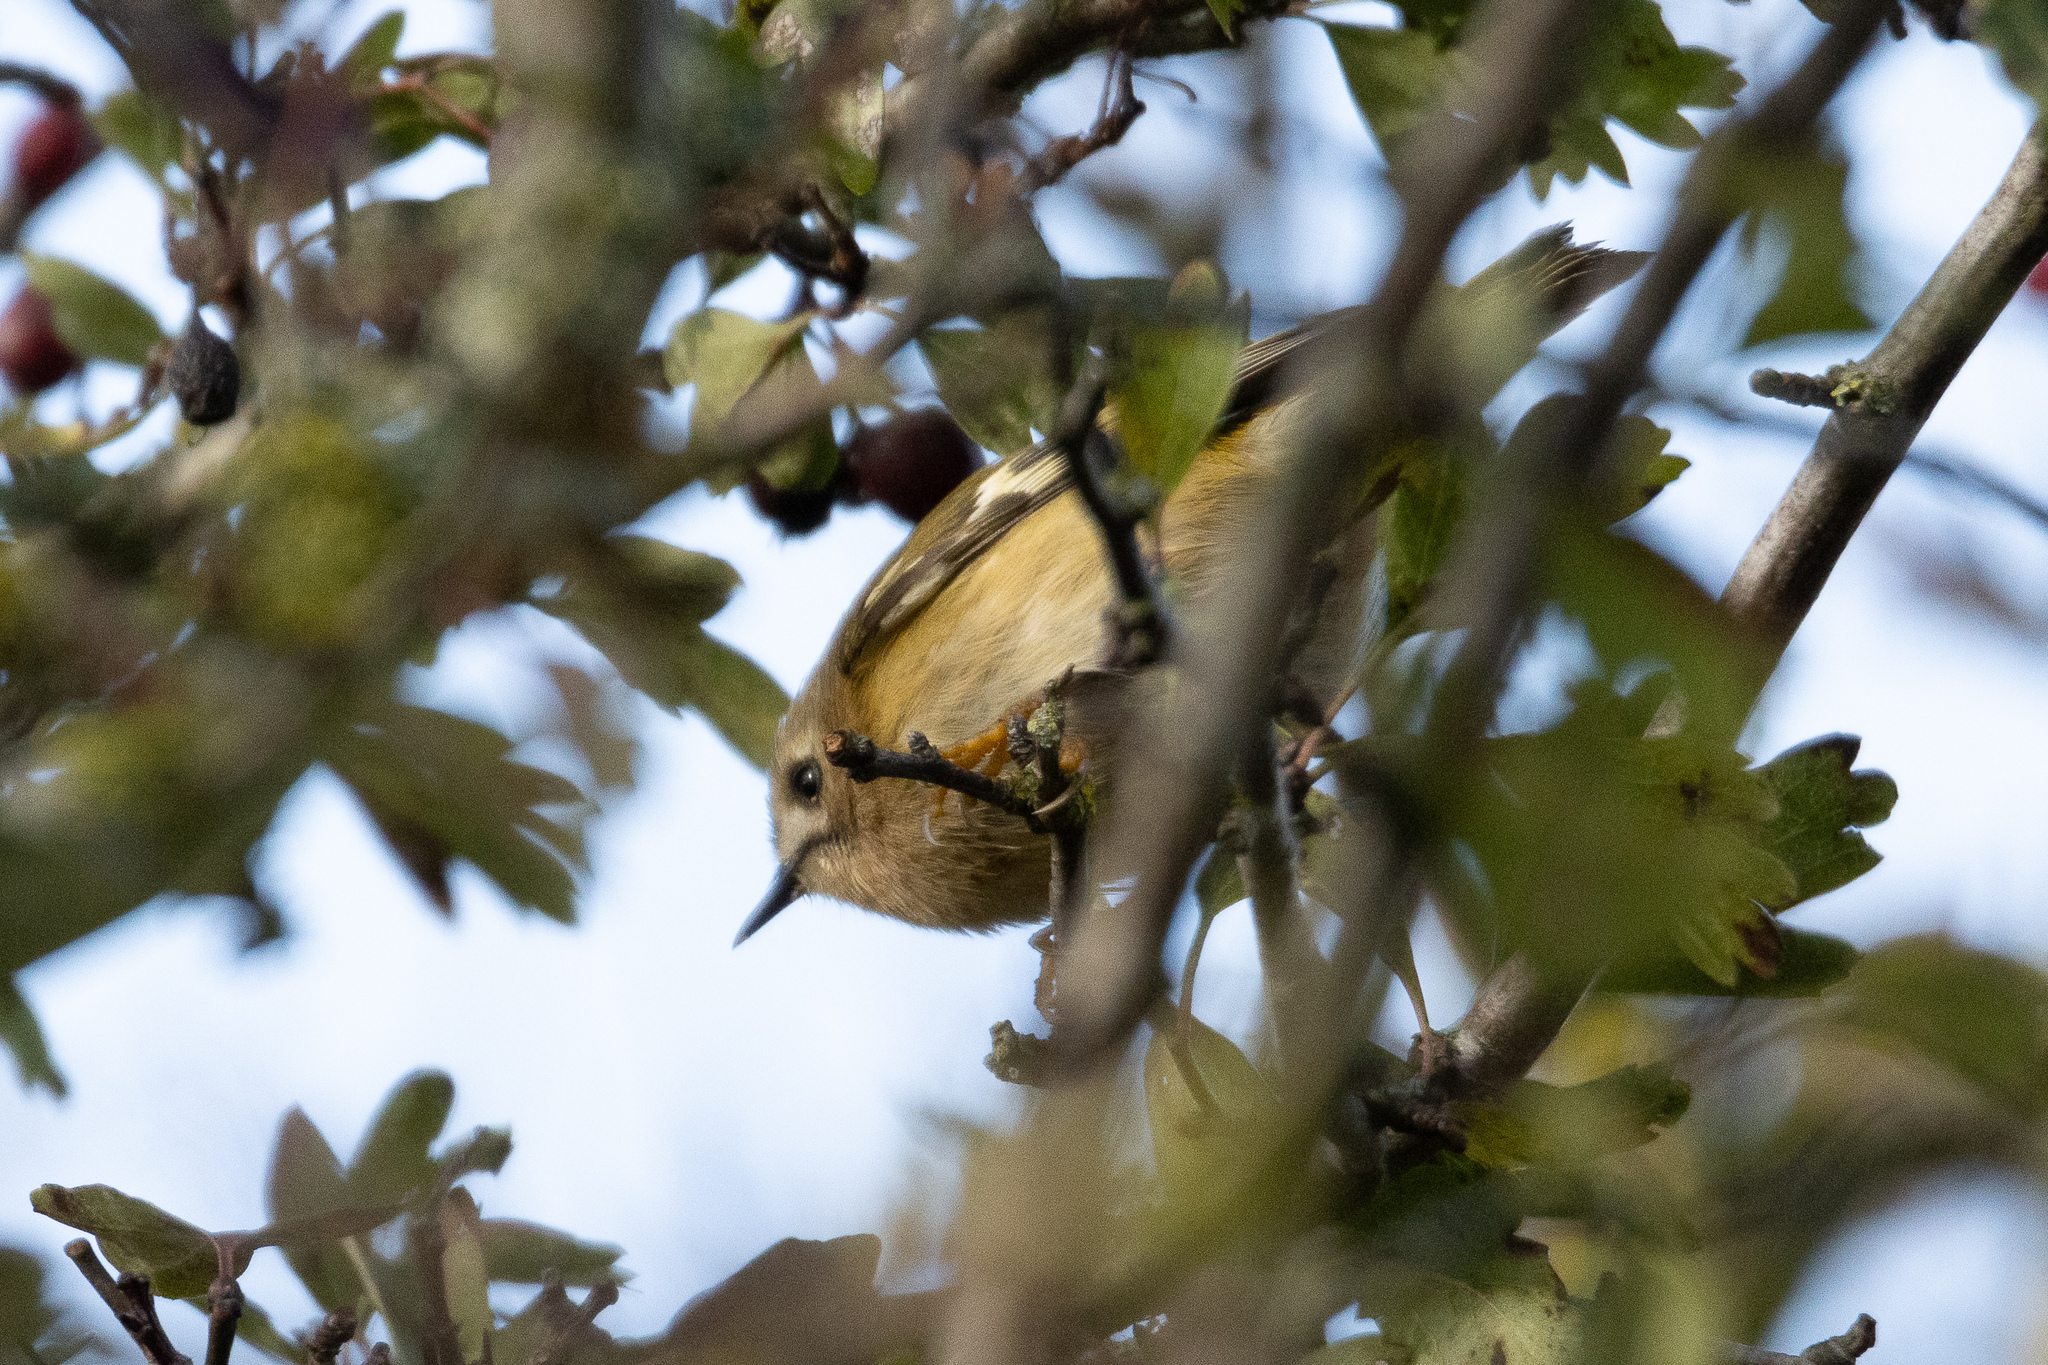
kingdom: Animalia
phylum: Chordata
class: Aves
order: Passeriformes
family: Regulidae
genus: Regulus
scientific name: Regulus regulus
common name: Goldcrest
